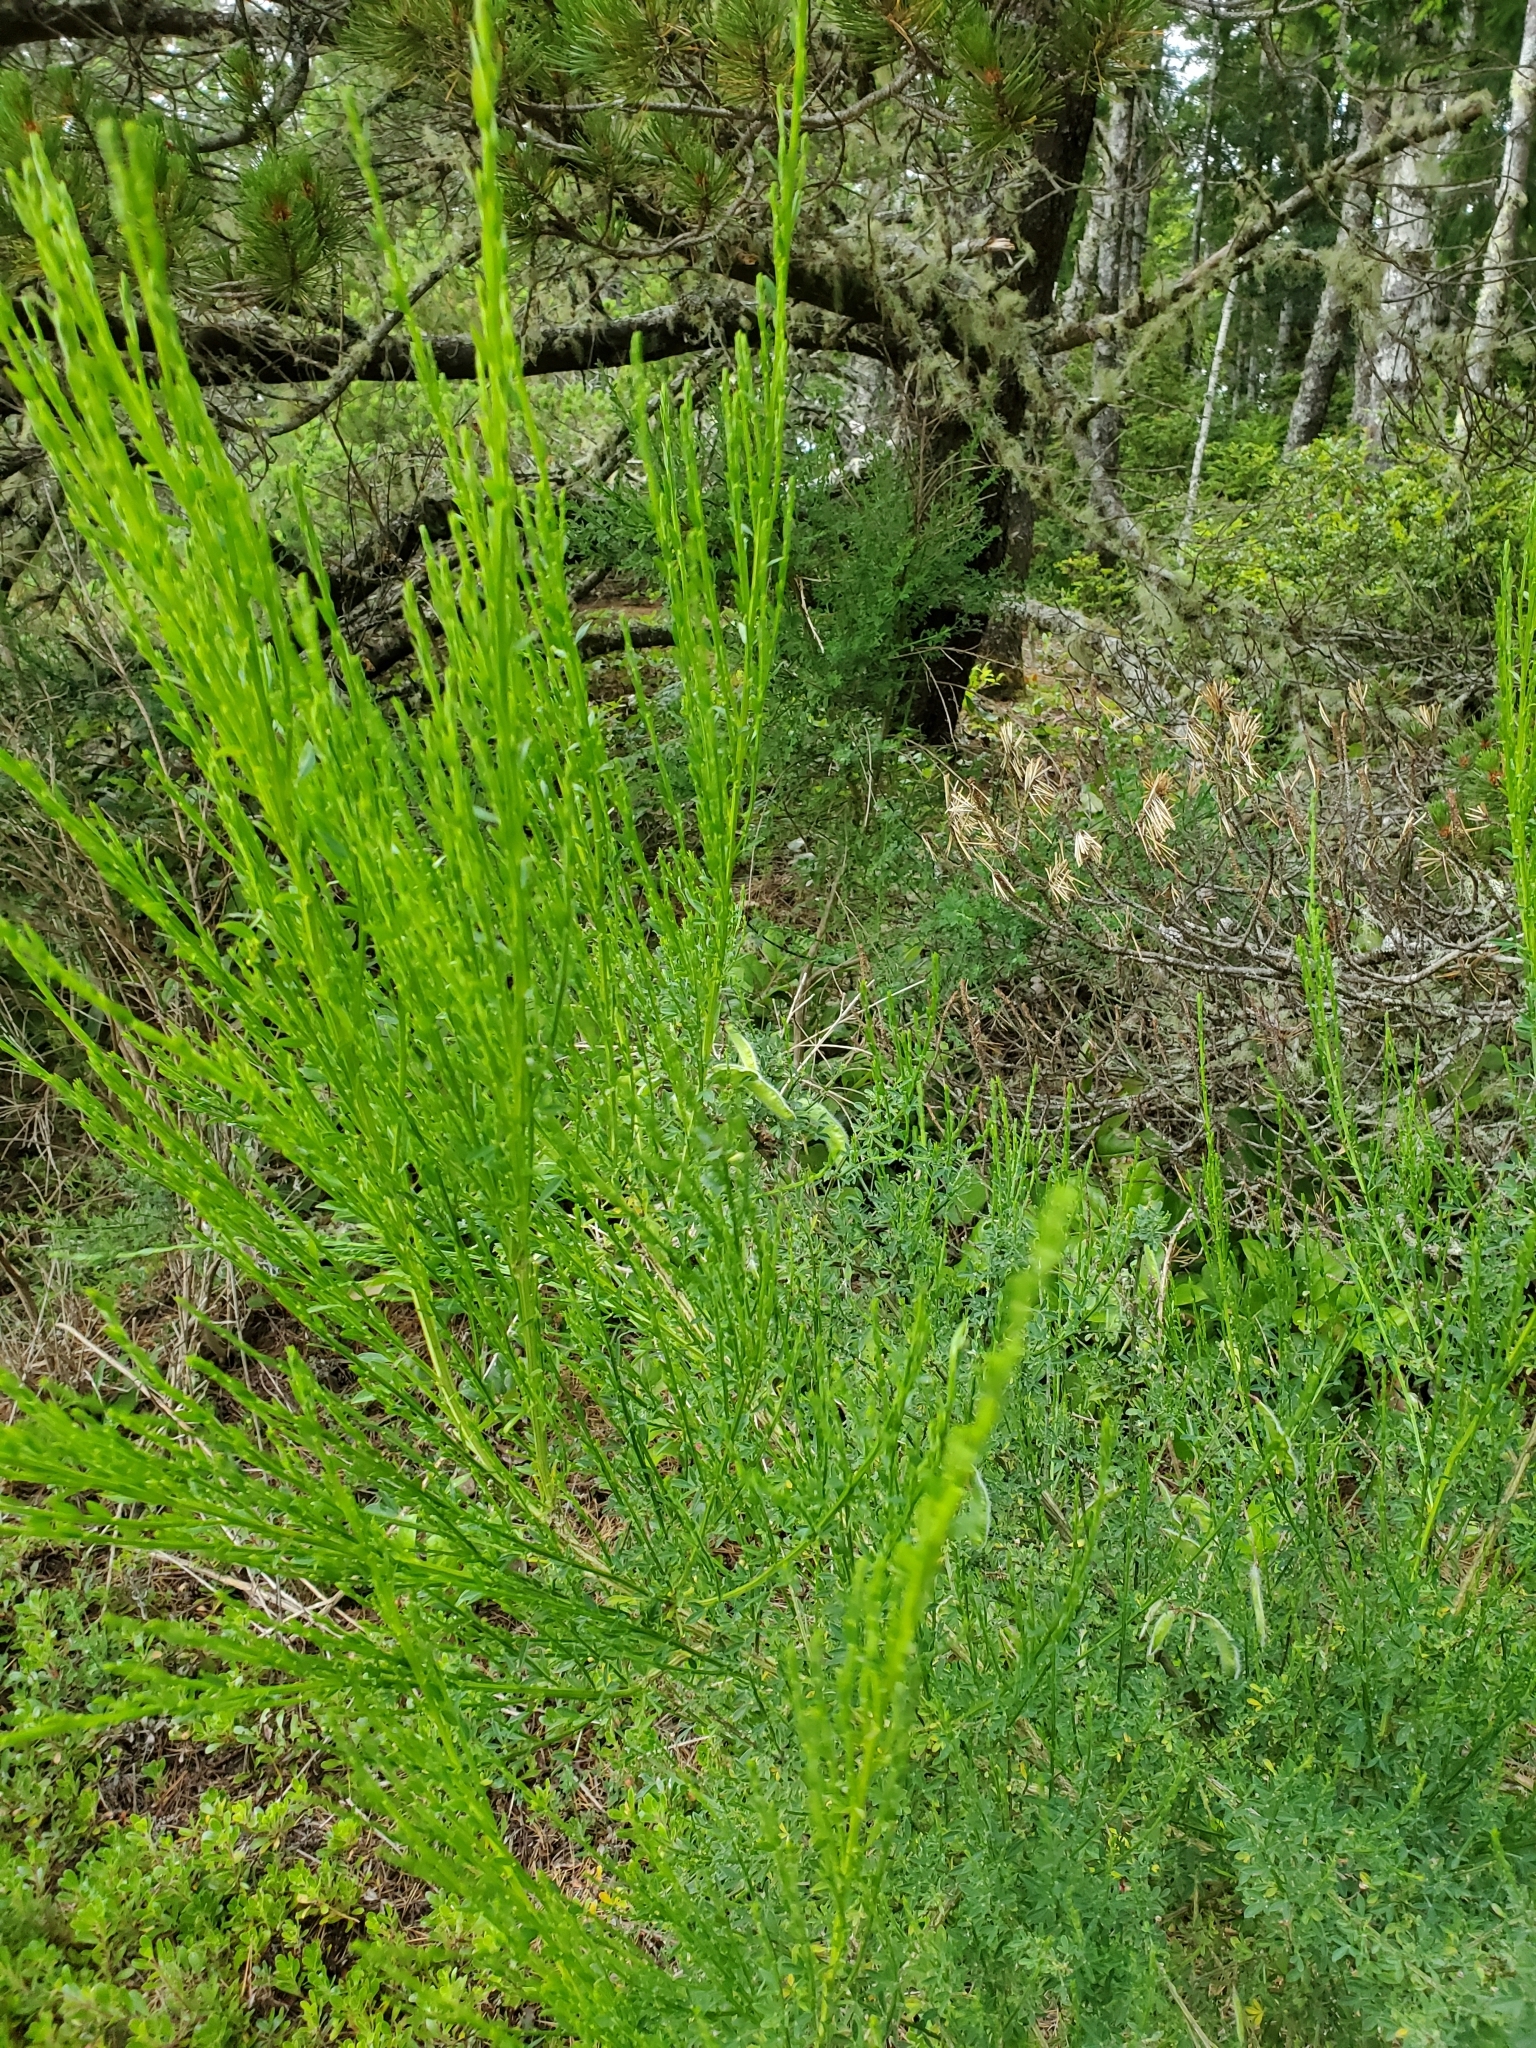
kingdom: Plantae
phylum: Tracheophyta
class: Magnoliopsida
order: Fabales
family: Fabaceae
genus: Cytisus
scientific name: Cytisus scoparius
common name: Scotch broom
